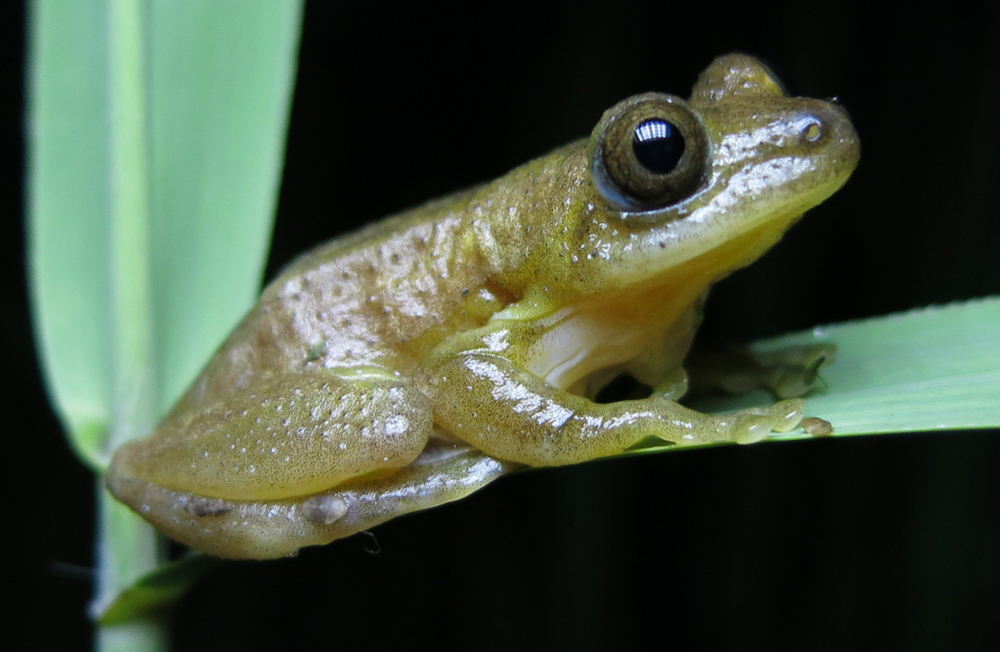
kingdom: Animalia
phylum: Chordata
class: Amphibia
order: Anura
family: Hyperoliidae
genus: Afrixalus
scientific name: Afrixalus fornasini
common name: Fornasini's spiny reed frog
